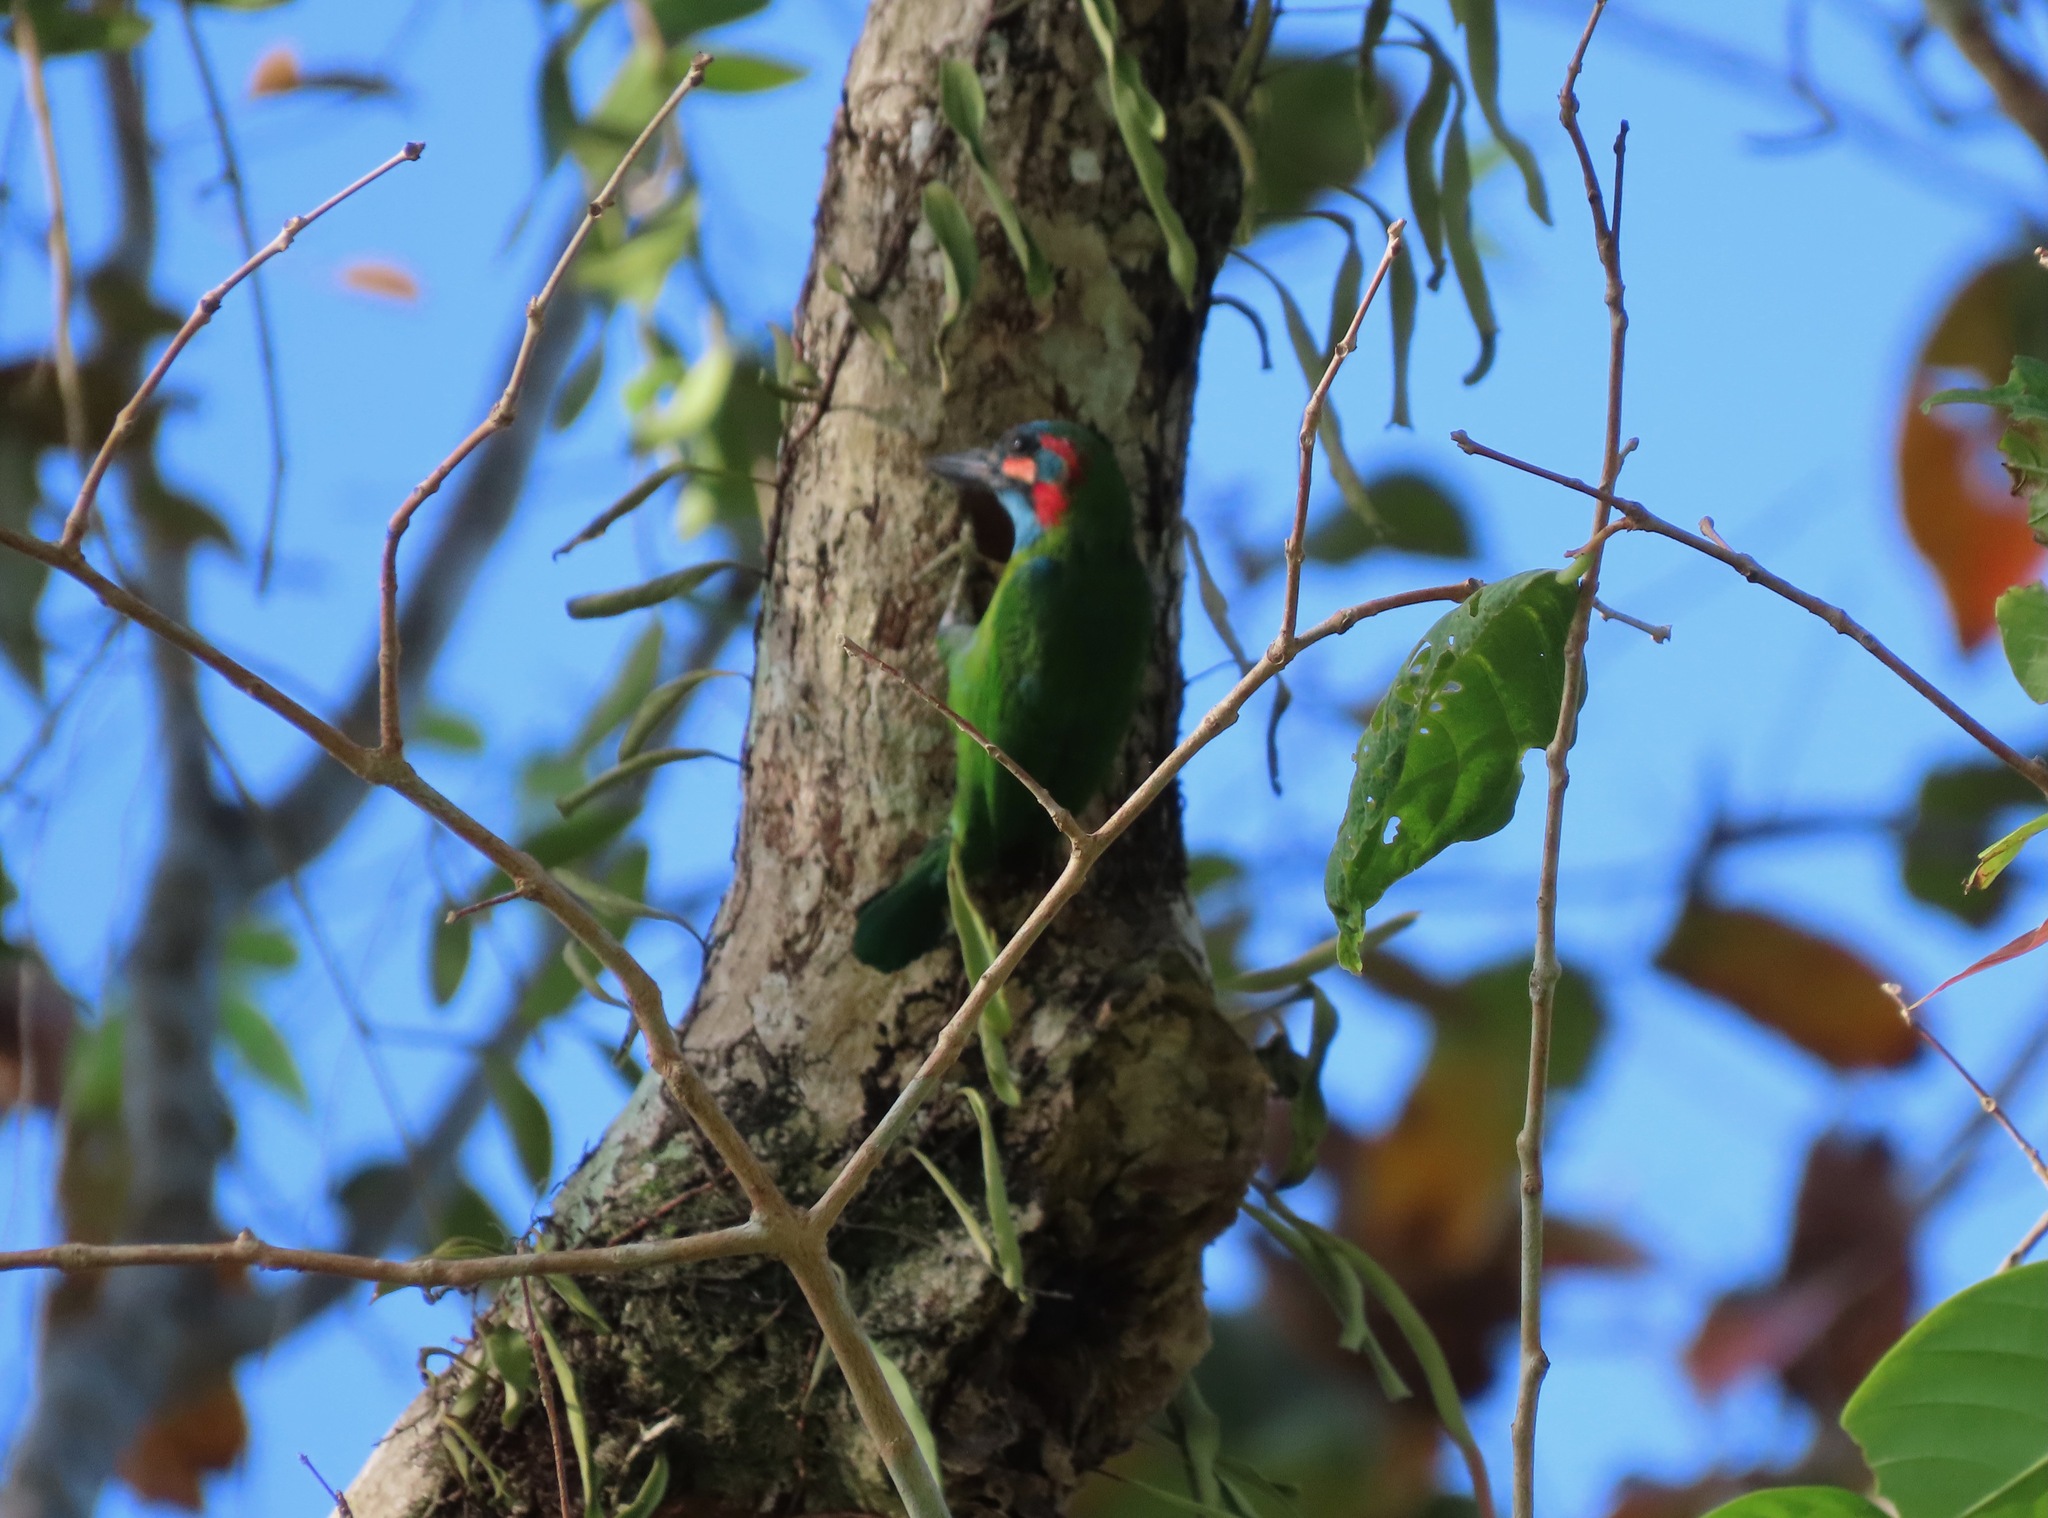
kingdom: Animalia
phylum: Chordata
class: Aves
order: Piciformes
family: Megalaimidae
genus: Psilopogon
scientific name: Psilopogon duvaucelii
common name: Blue-eared barbet
